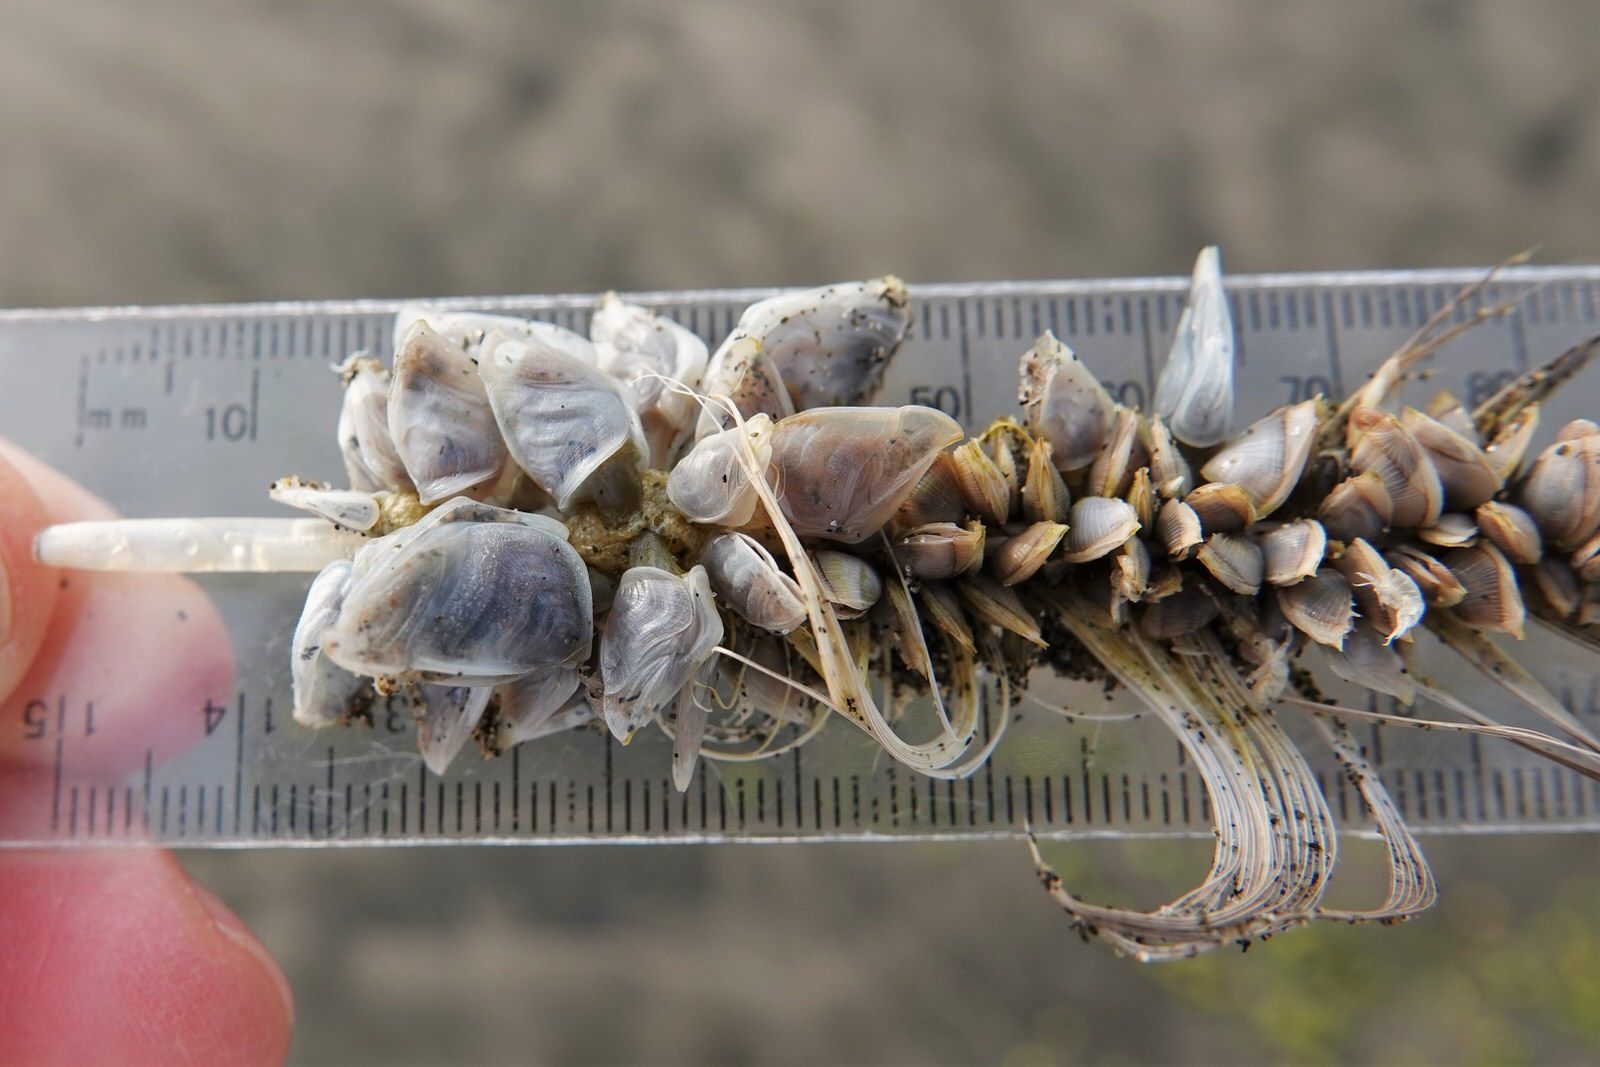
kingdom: Animalia
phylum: Arthropoda
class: Maxillopoda
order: Pedunculata
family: Lepadidae
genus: Dosima
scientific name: Dosima fascicularis
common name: Buoy barnacle
